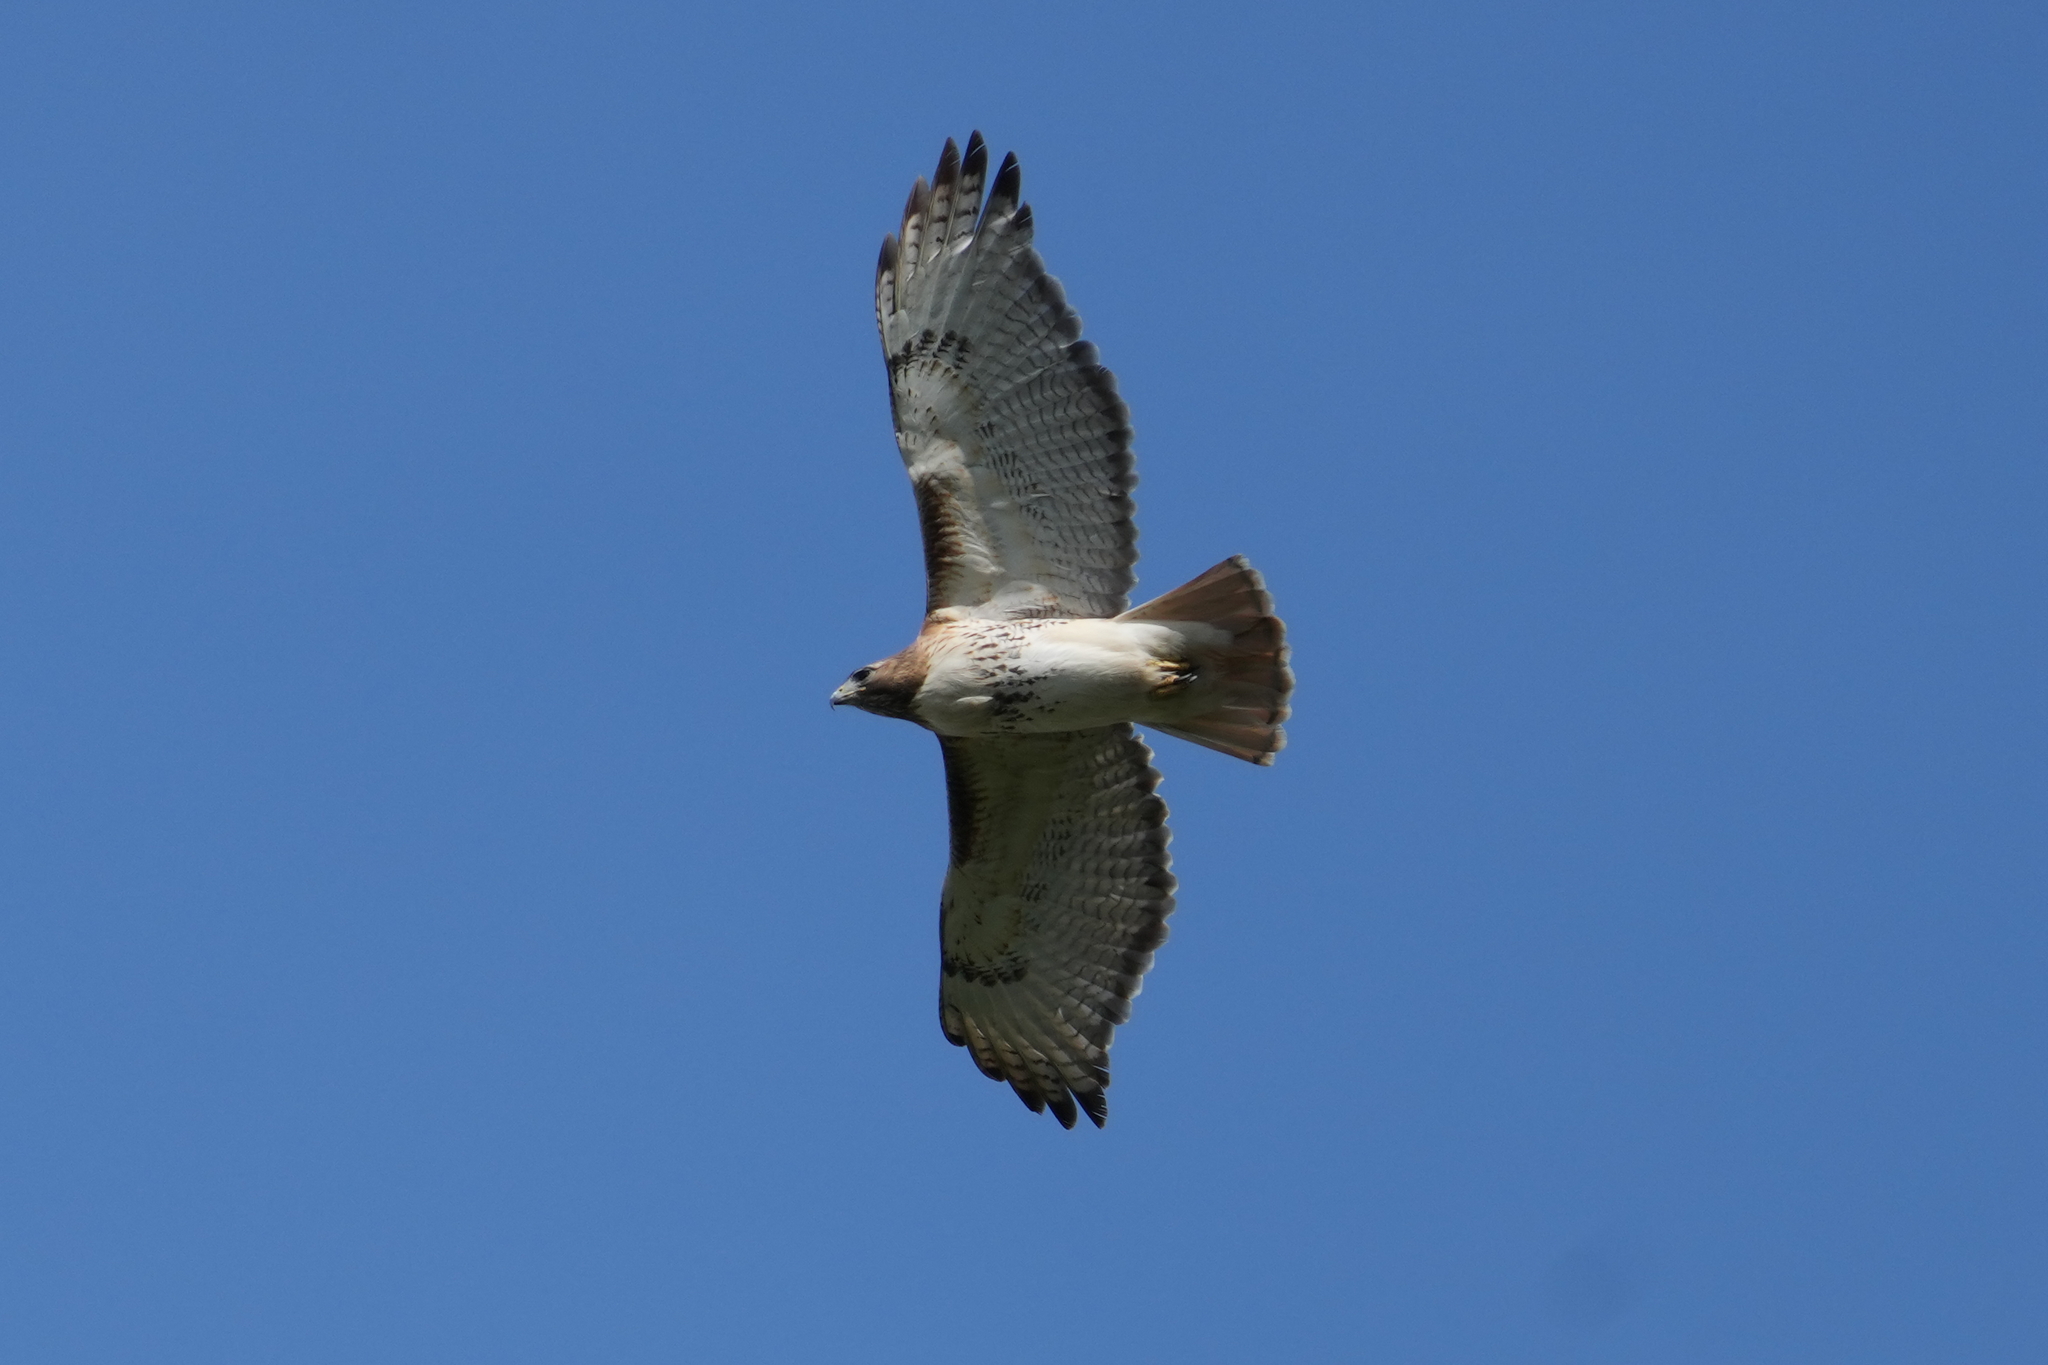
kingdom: Animalia
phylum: Chordata
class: Aves
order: Accipitriformes
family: Accipitridae
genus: Buteo
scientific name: Buteo jamaicensis
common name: Red-tailed hawk
